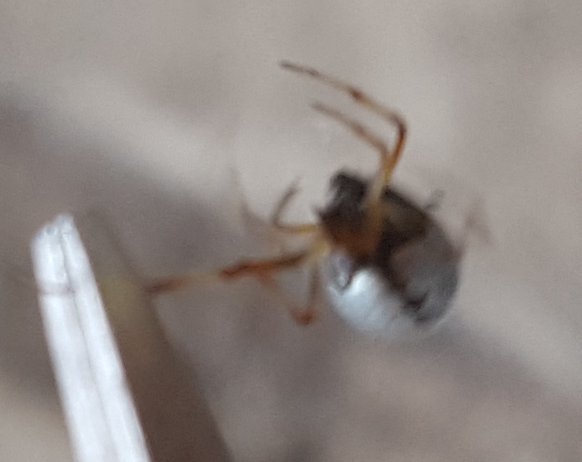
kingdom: Animalia
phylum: Arthropoda
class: Arachnida
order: Araneae
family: Theridiidae
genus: Argyrodes
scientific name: Argyrodes argentatus
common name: Dewdrop spider
